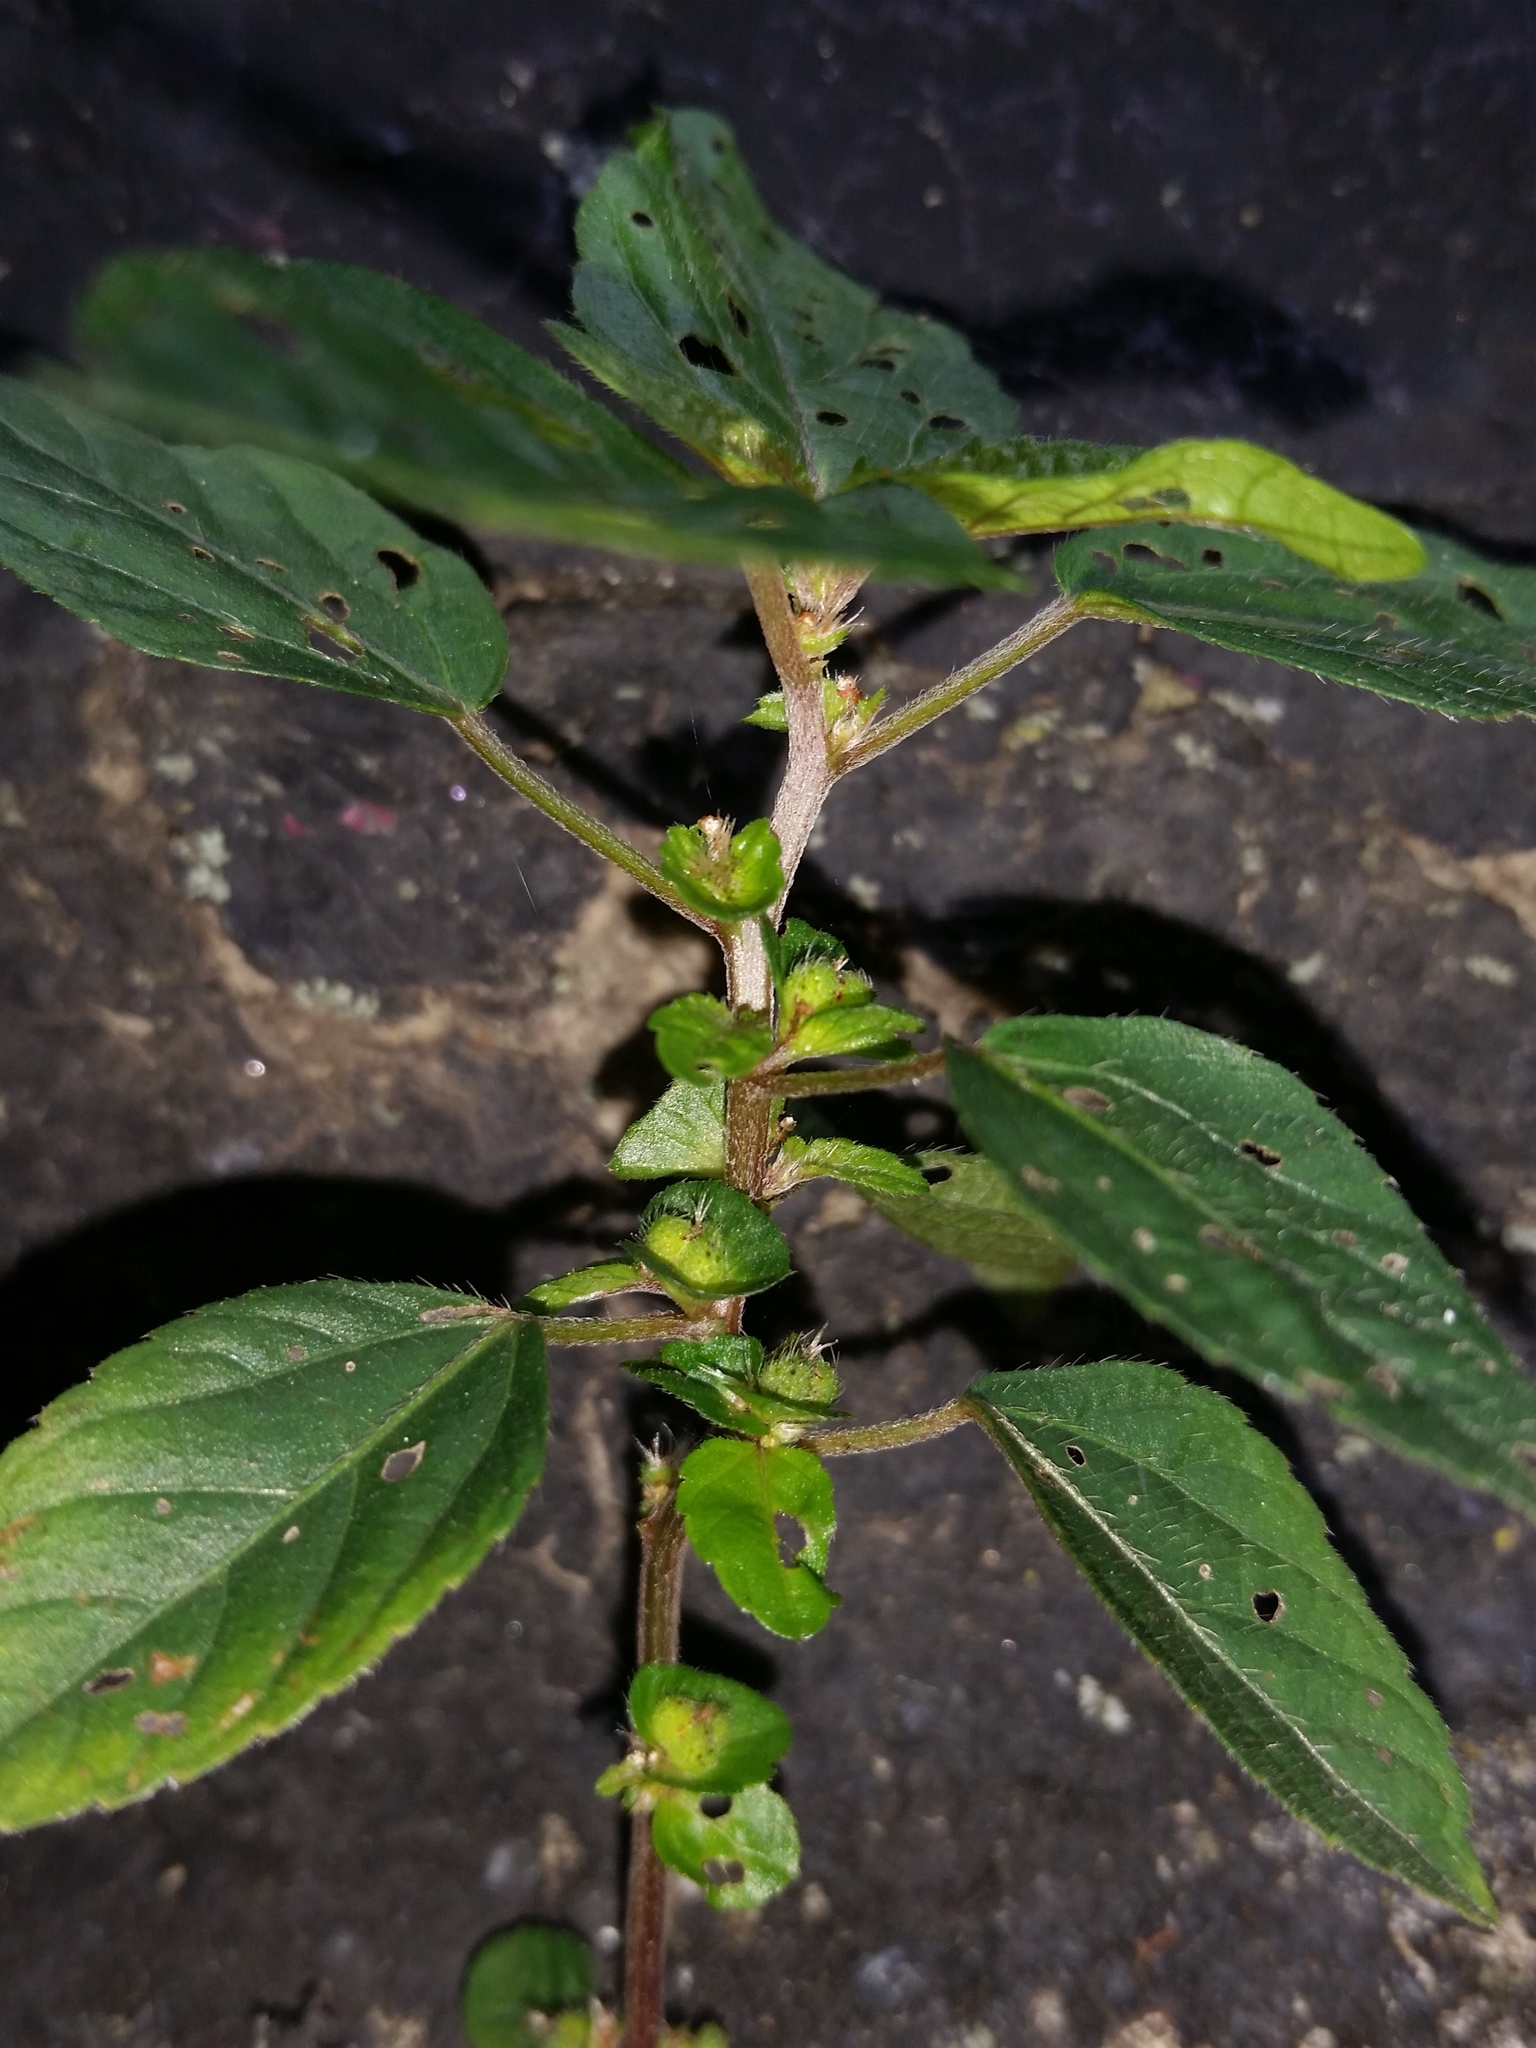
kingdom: Plantae
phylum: Tracheophyta
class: Magnoliopsida
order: Malpighiales
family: Euphorbiaceae
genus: Acalypha
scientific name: Acalypha australis
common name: Asian copperleaf
